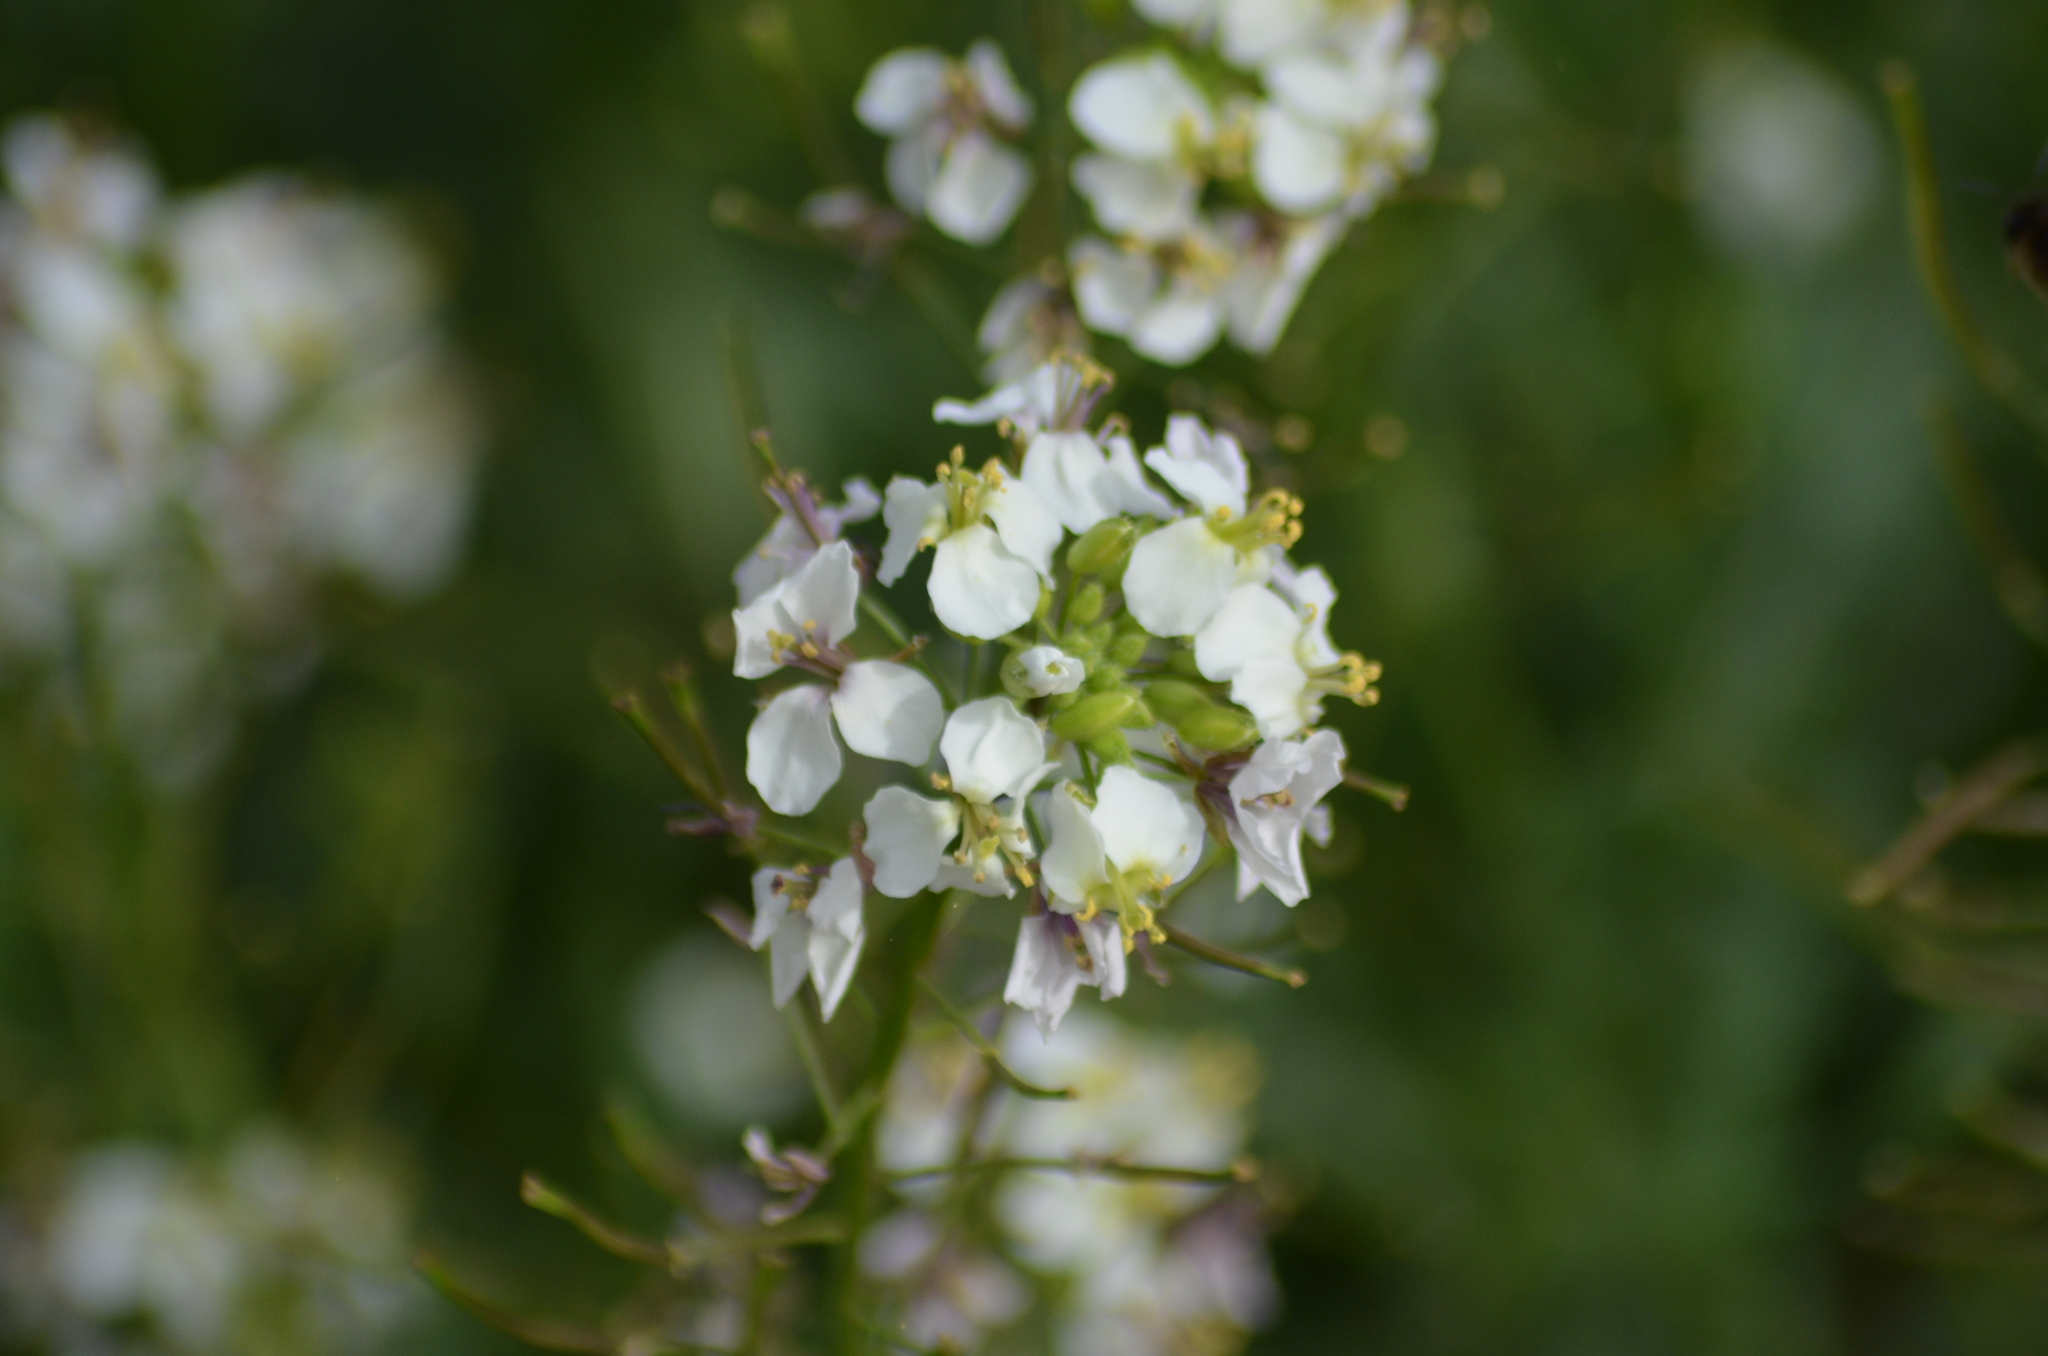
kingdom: Plantae
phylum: Tracheophyta
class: Magnoliopsida
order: Brassicales
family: Brassicaceae
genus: Diplotaxis
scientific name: Diplotaxis erucoides
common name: White rocket
